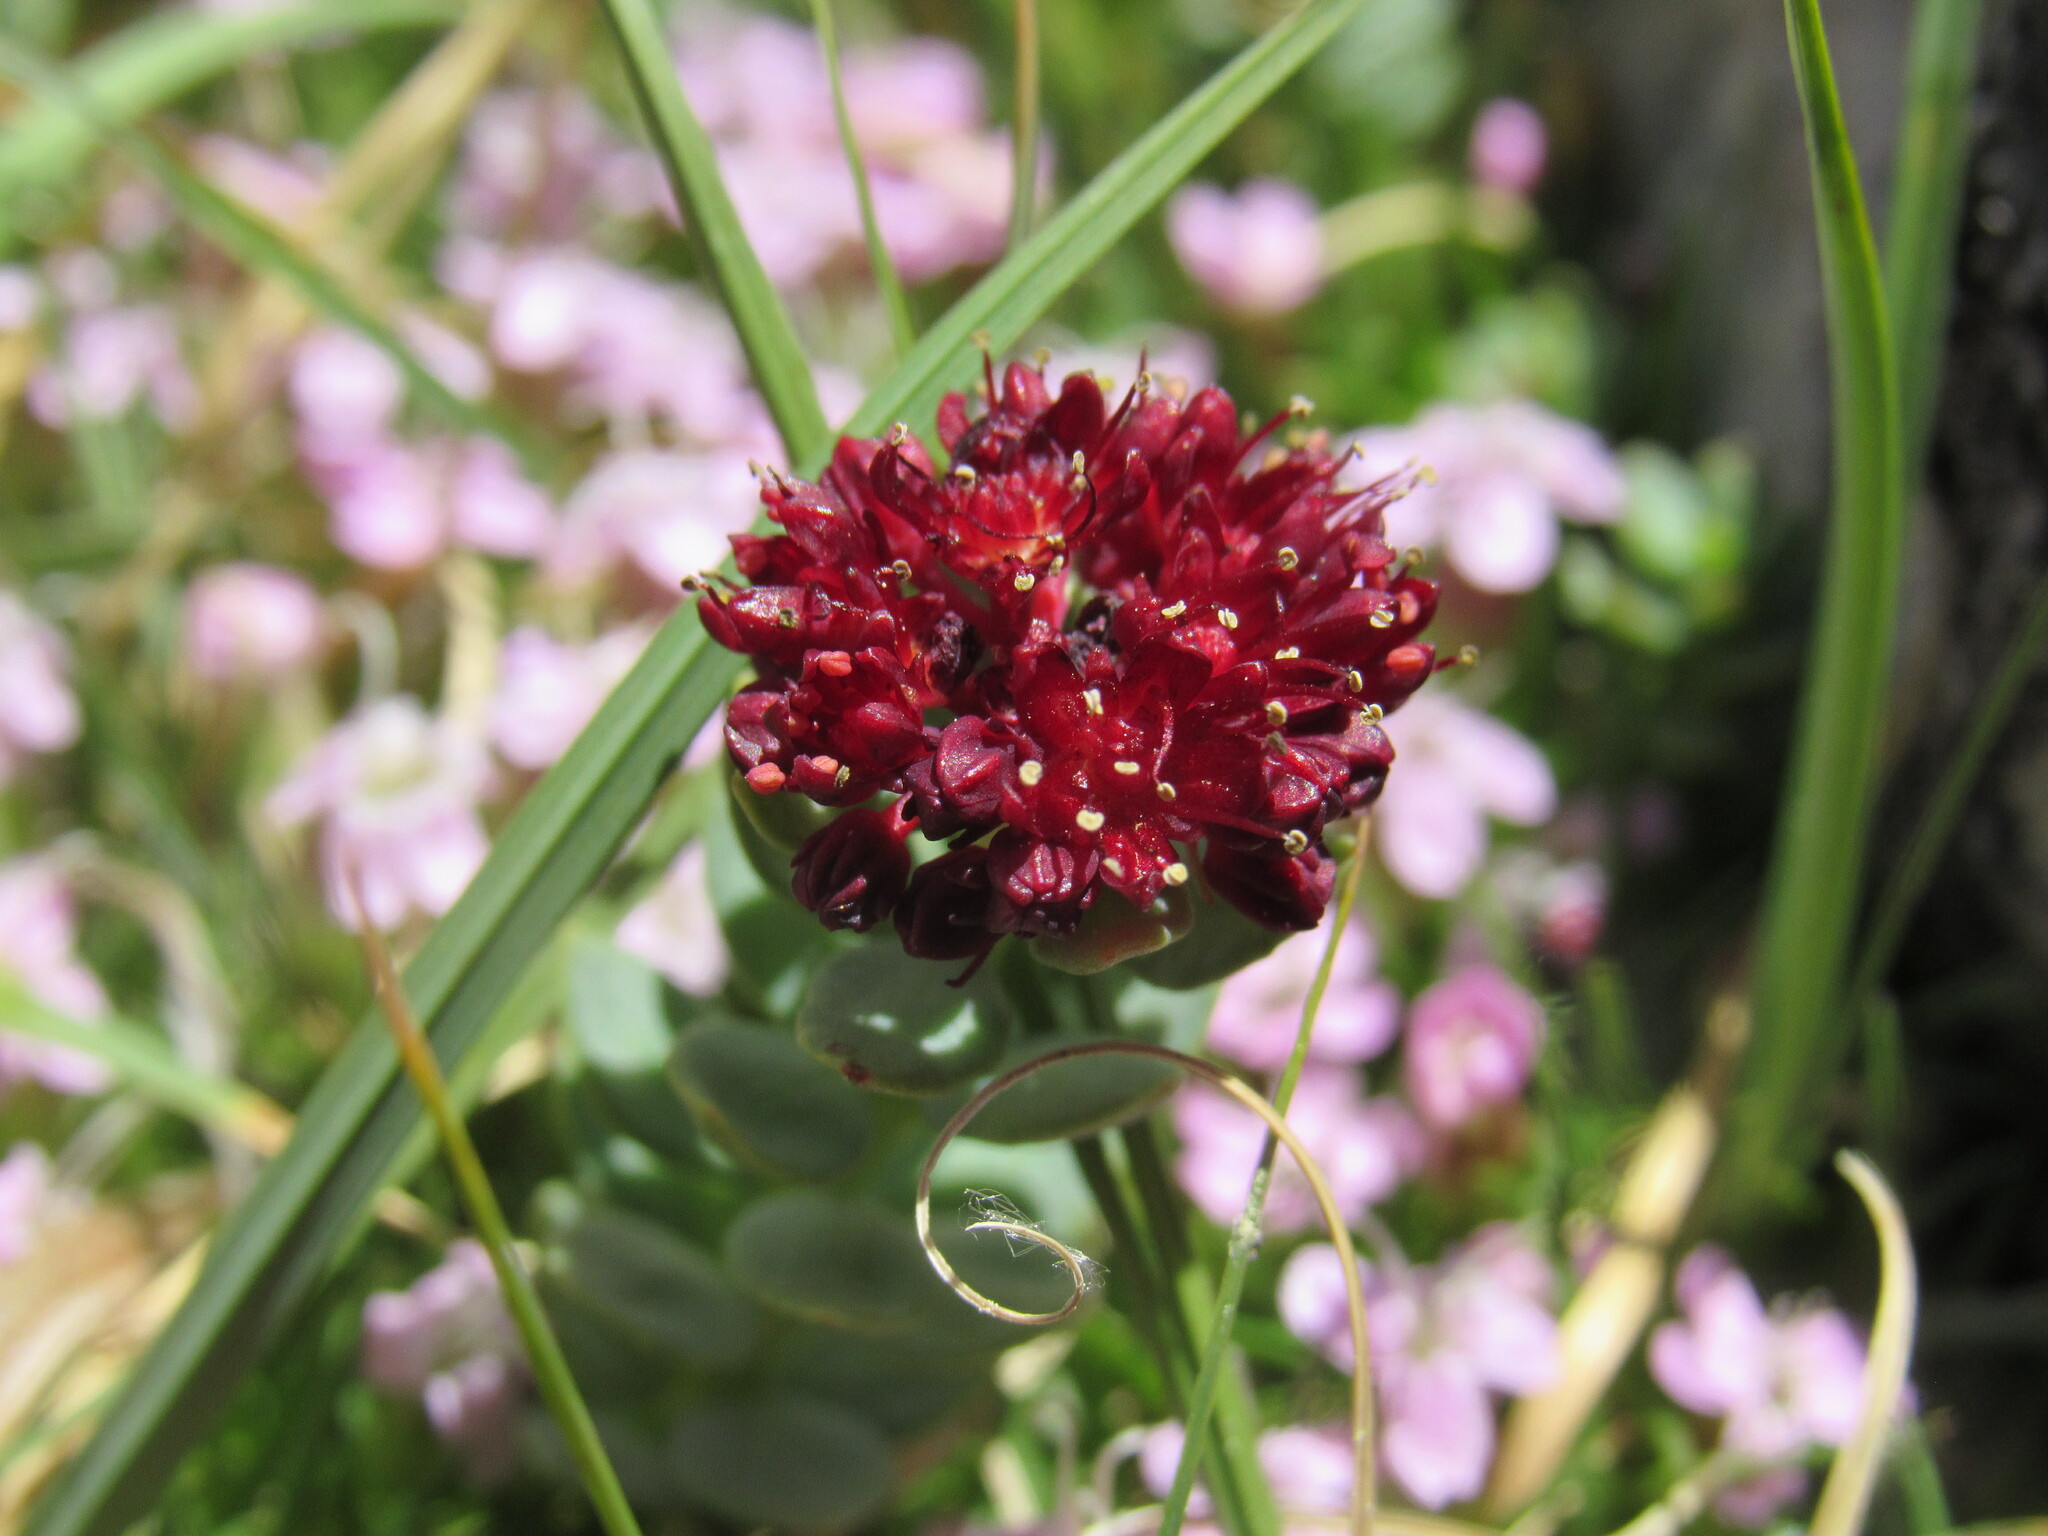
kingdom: Plantae
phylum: Tracheophyta
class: Magnoliopsida
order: Saxifragales
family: Crassulaceae
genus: Rhodiola
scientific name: Rhodiola integrifolia
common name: Western roseroot
